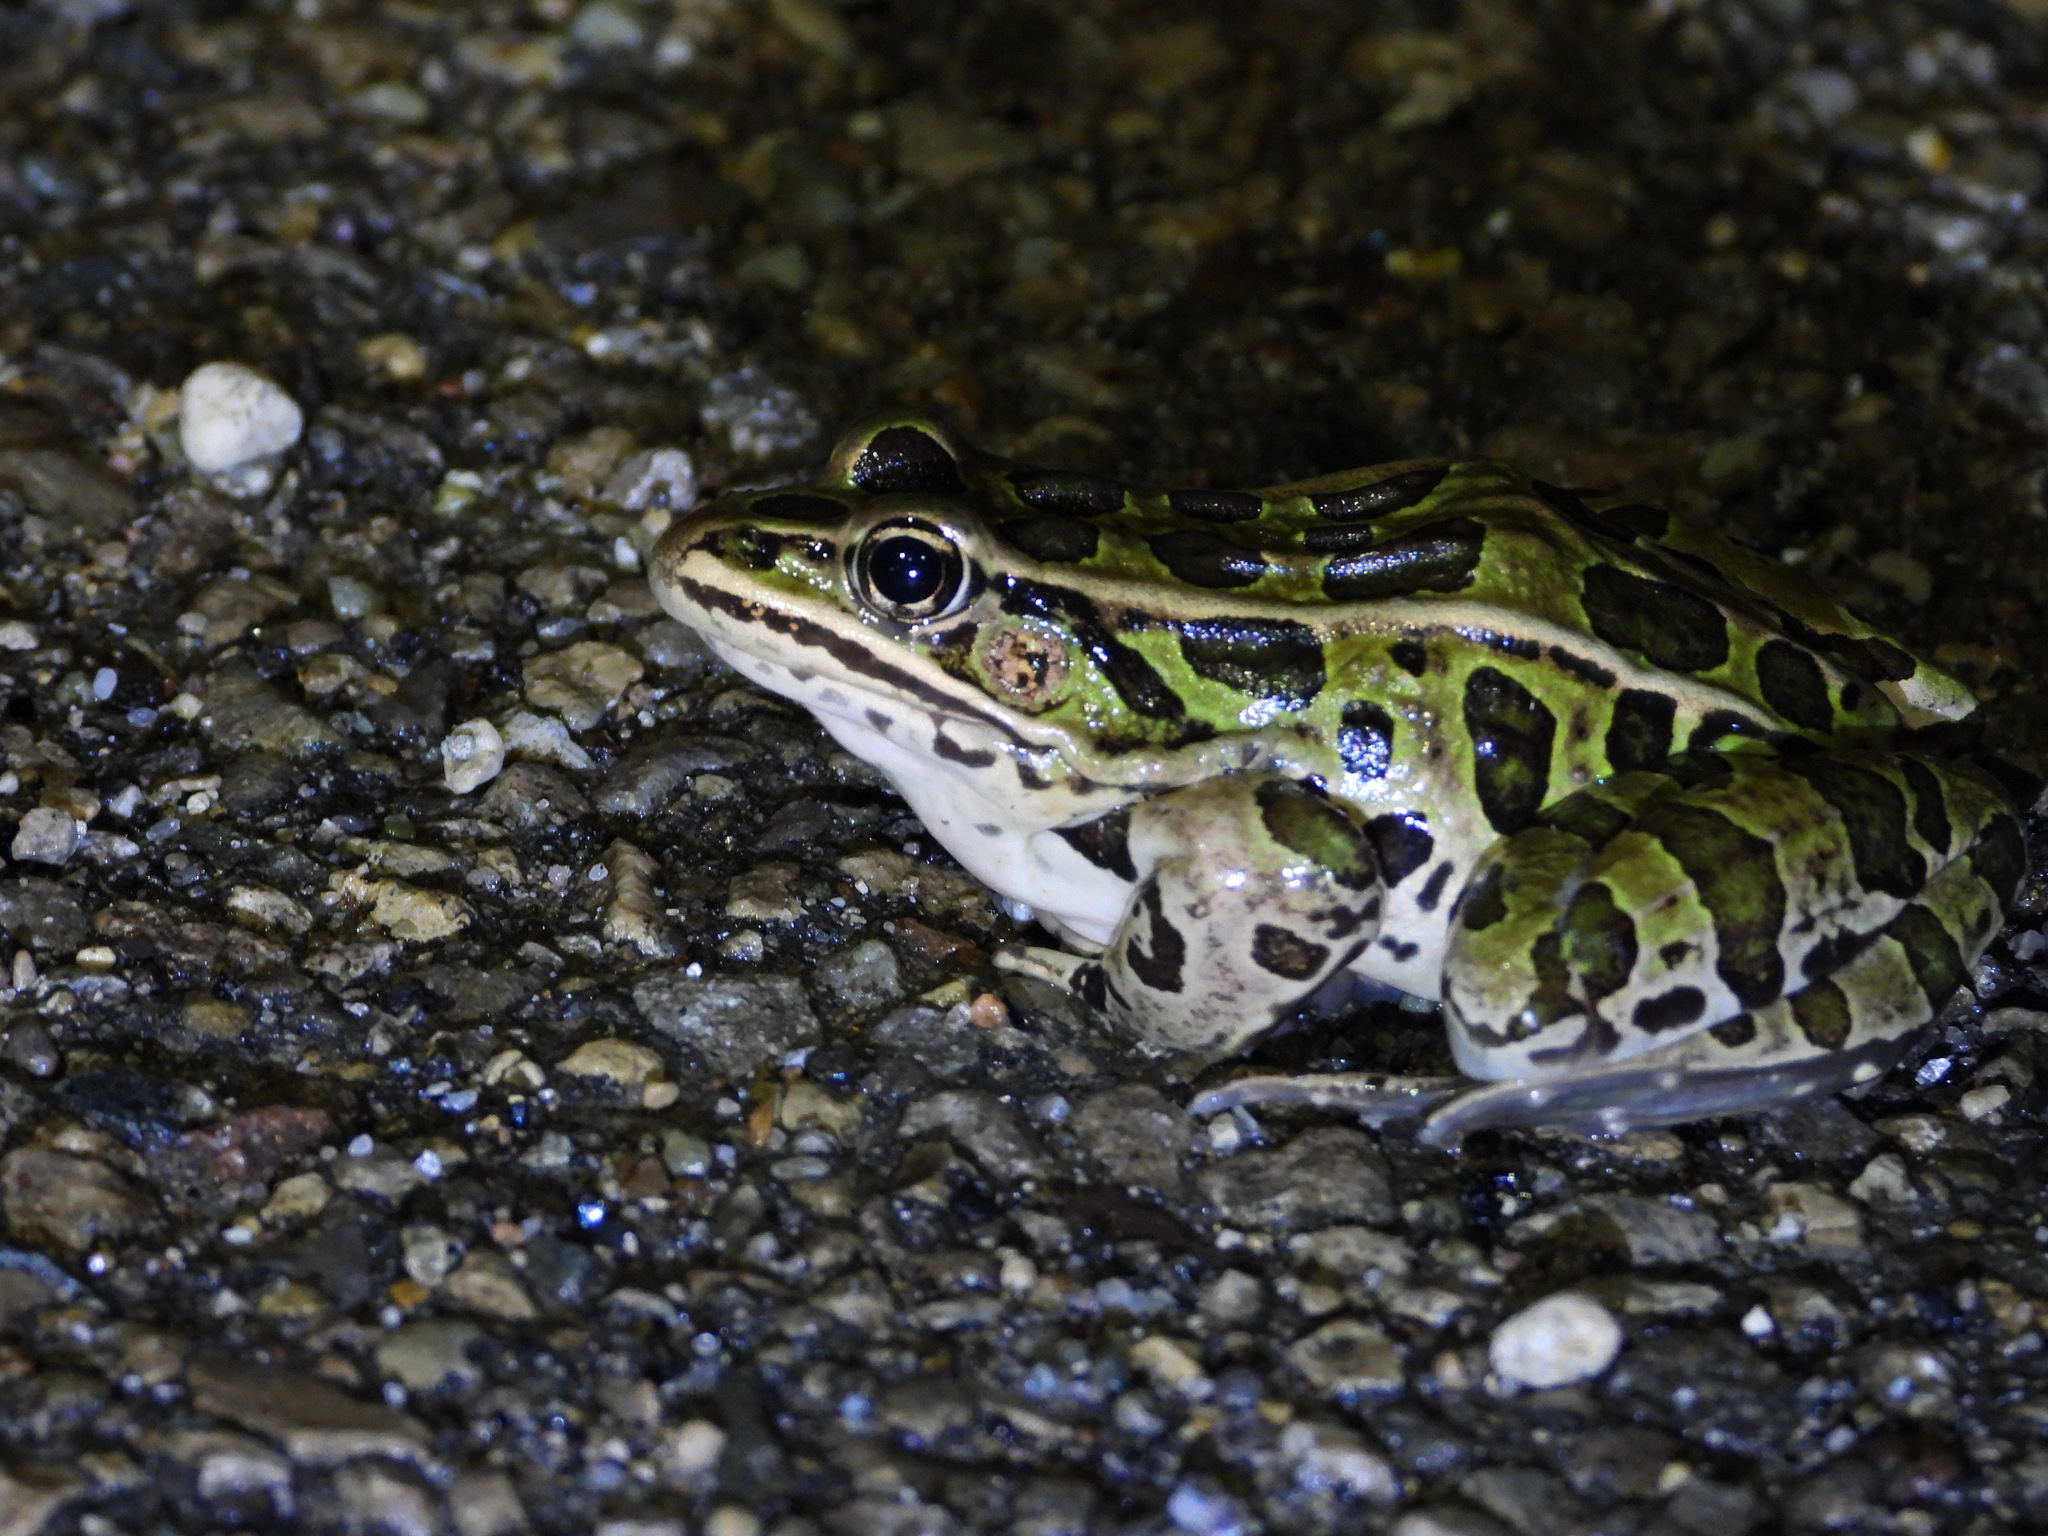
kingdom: Animalia
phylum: Chordata
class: Amphibia
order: Anura
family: Ranidae
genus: Lithobates
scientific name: Lithobates pipiens
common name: Northern leopard frog
